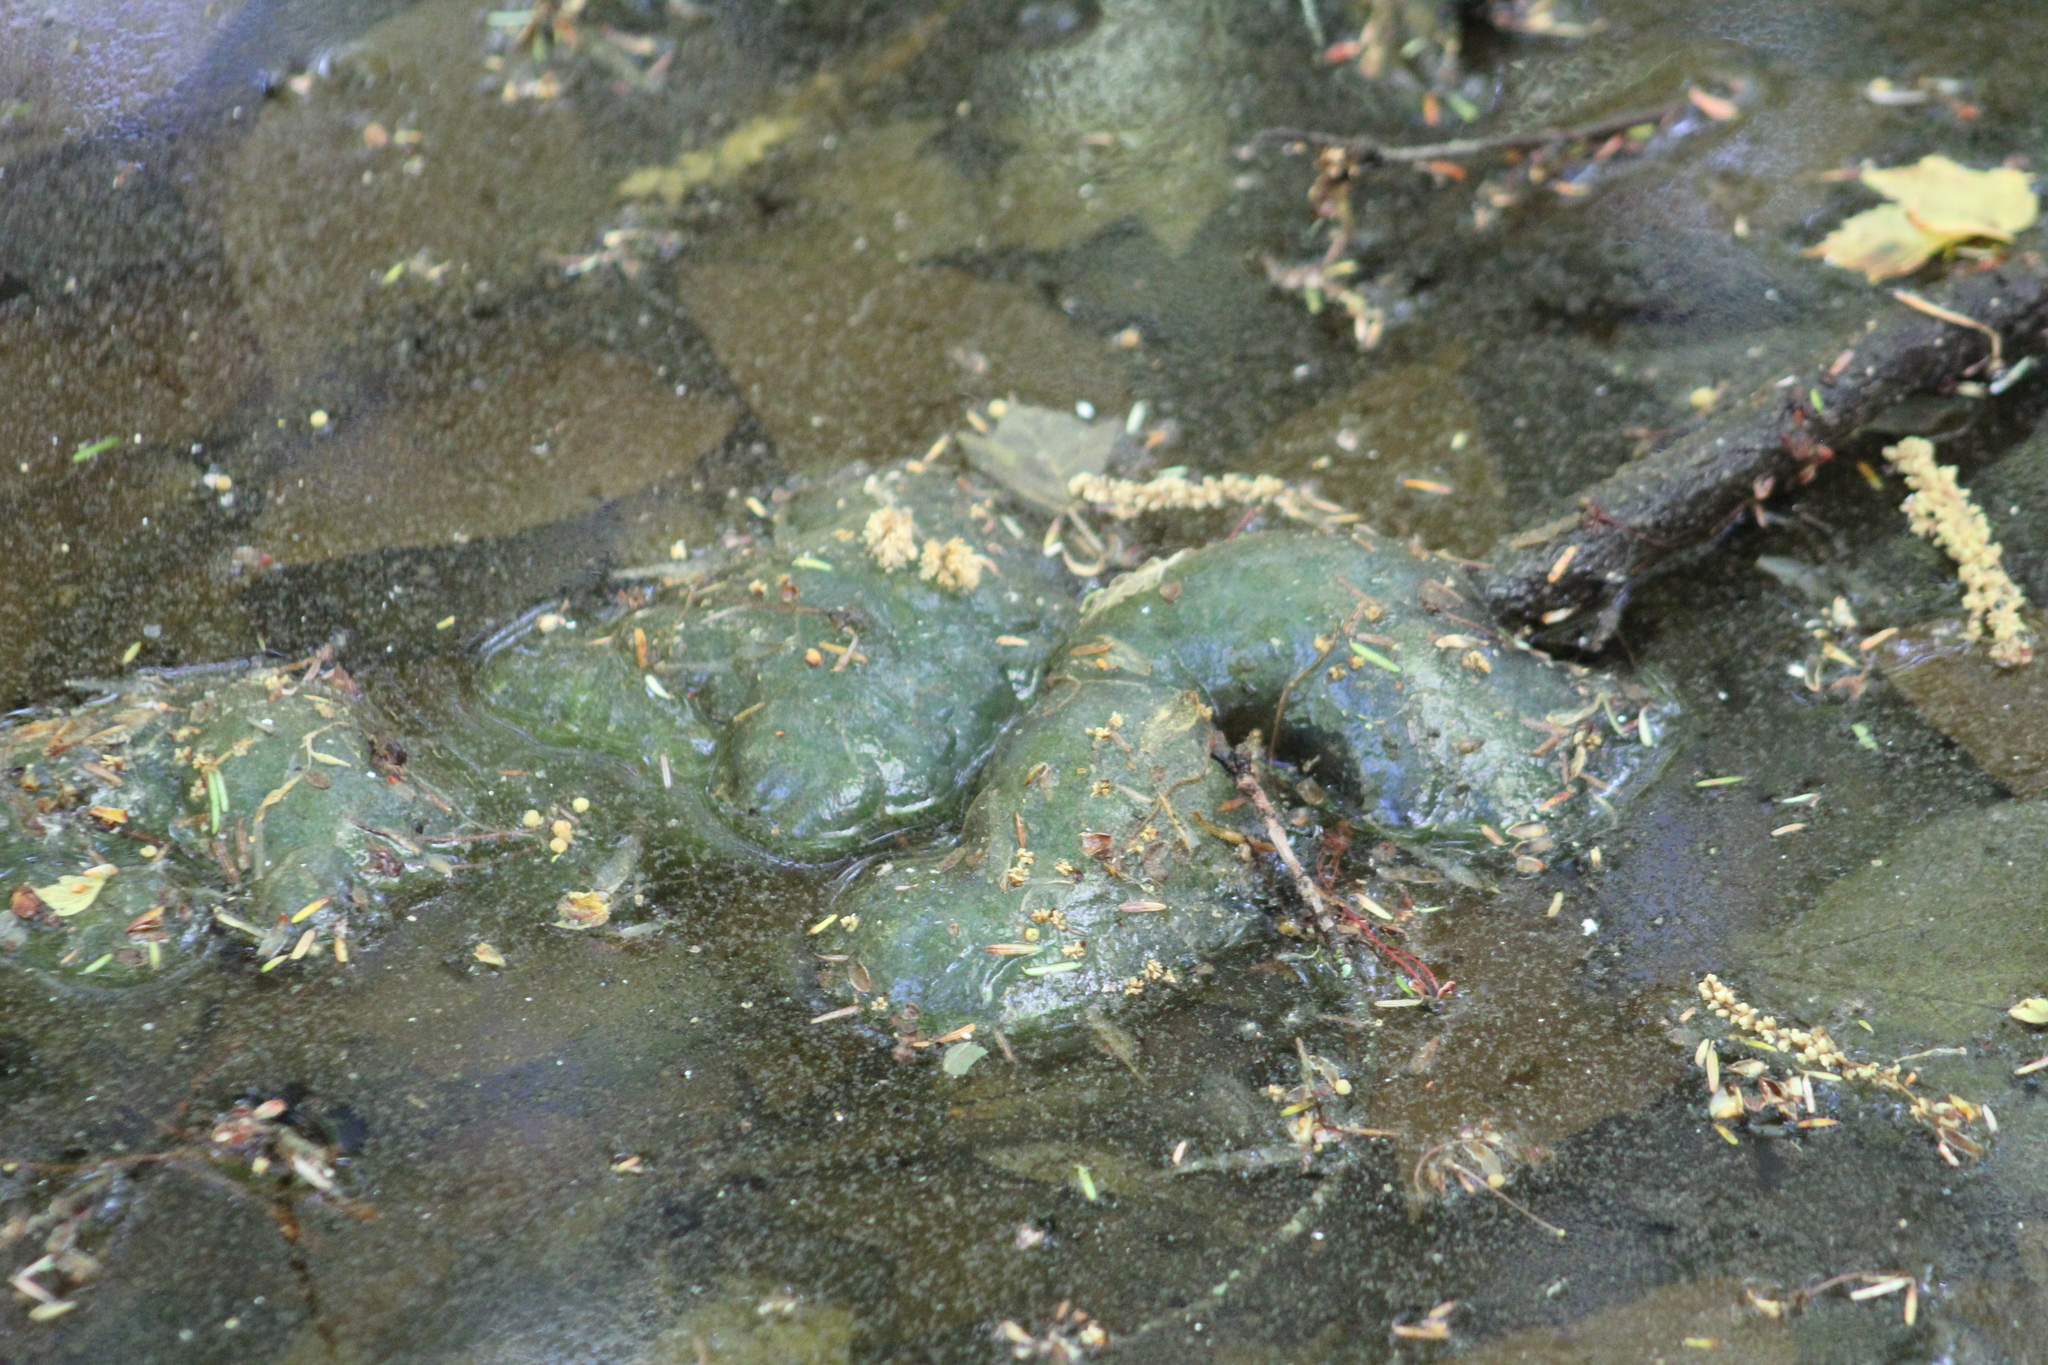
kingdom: Animalia
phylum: Chordata
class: Amphibia
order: Caudata
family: Ambystomatidae
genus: Ambystoma
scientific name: Ambystoma maculatum
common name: Spotted salamander
